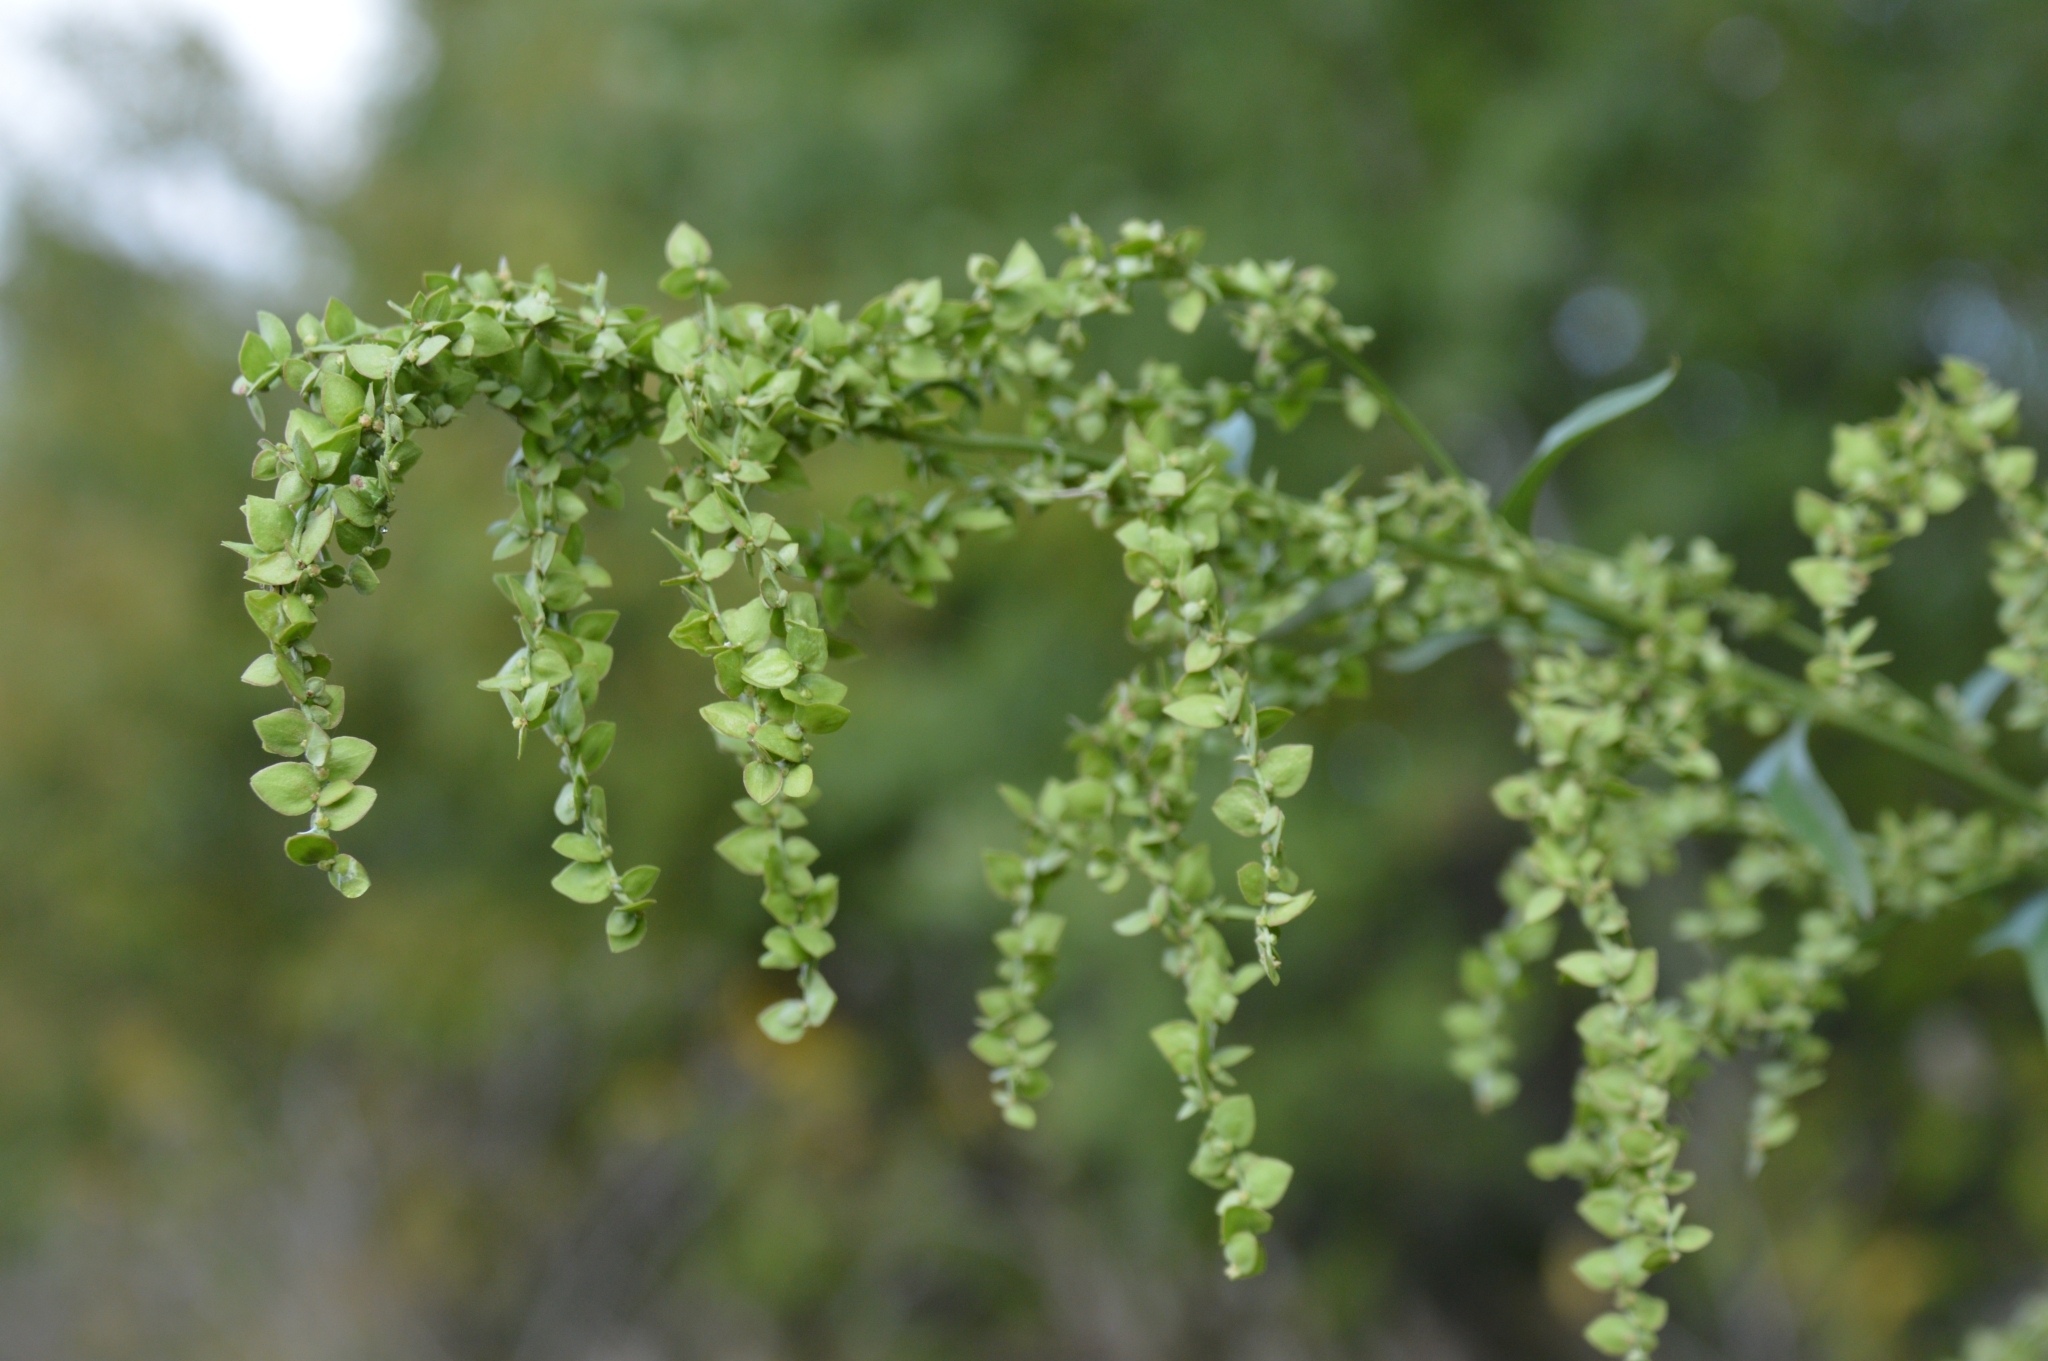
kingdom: Plantae
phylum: Tracheophyta
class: Magnoliopsida
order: Caryophyllales
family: Amaranthaceae
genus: Atriplex
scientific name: Atriplex sagittata
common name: Purple orache
